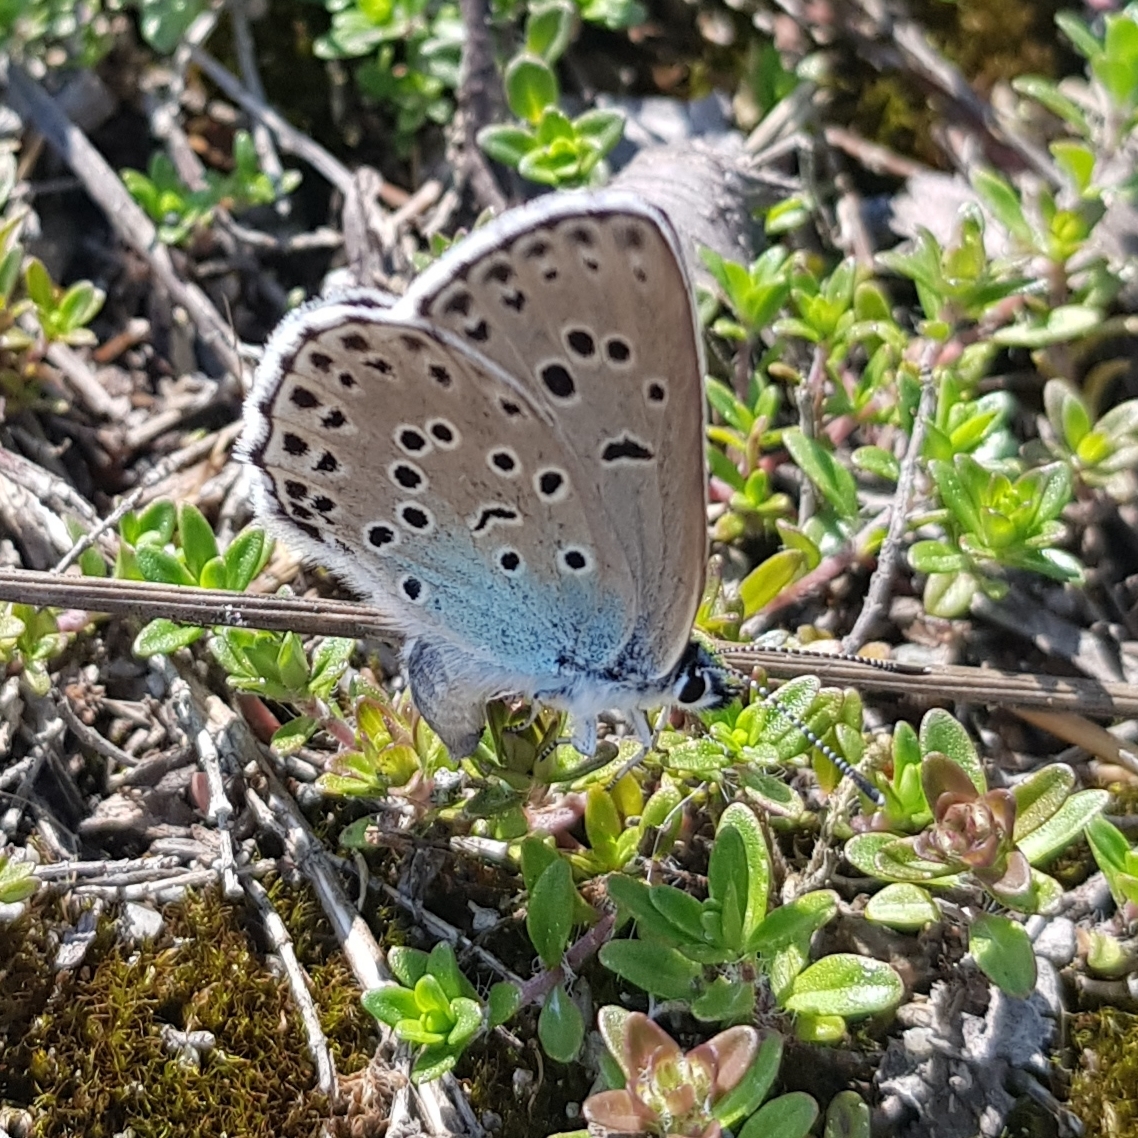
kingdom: Animalia
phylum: Arthropoda
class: Insecta
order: Lepidoptera
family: Lycaenidae
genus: Maculinea
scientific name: Maculinea arion
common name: Large blue
